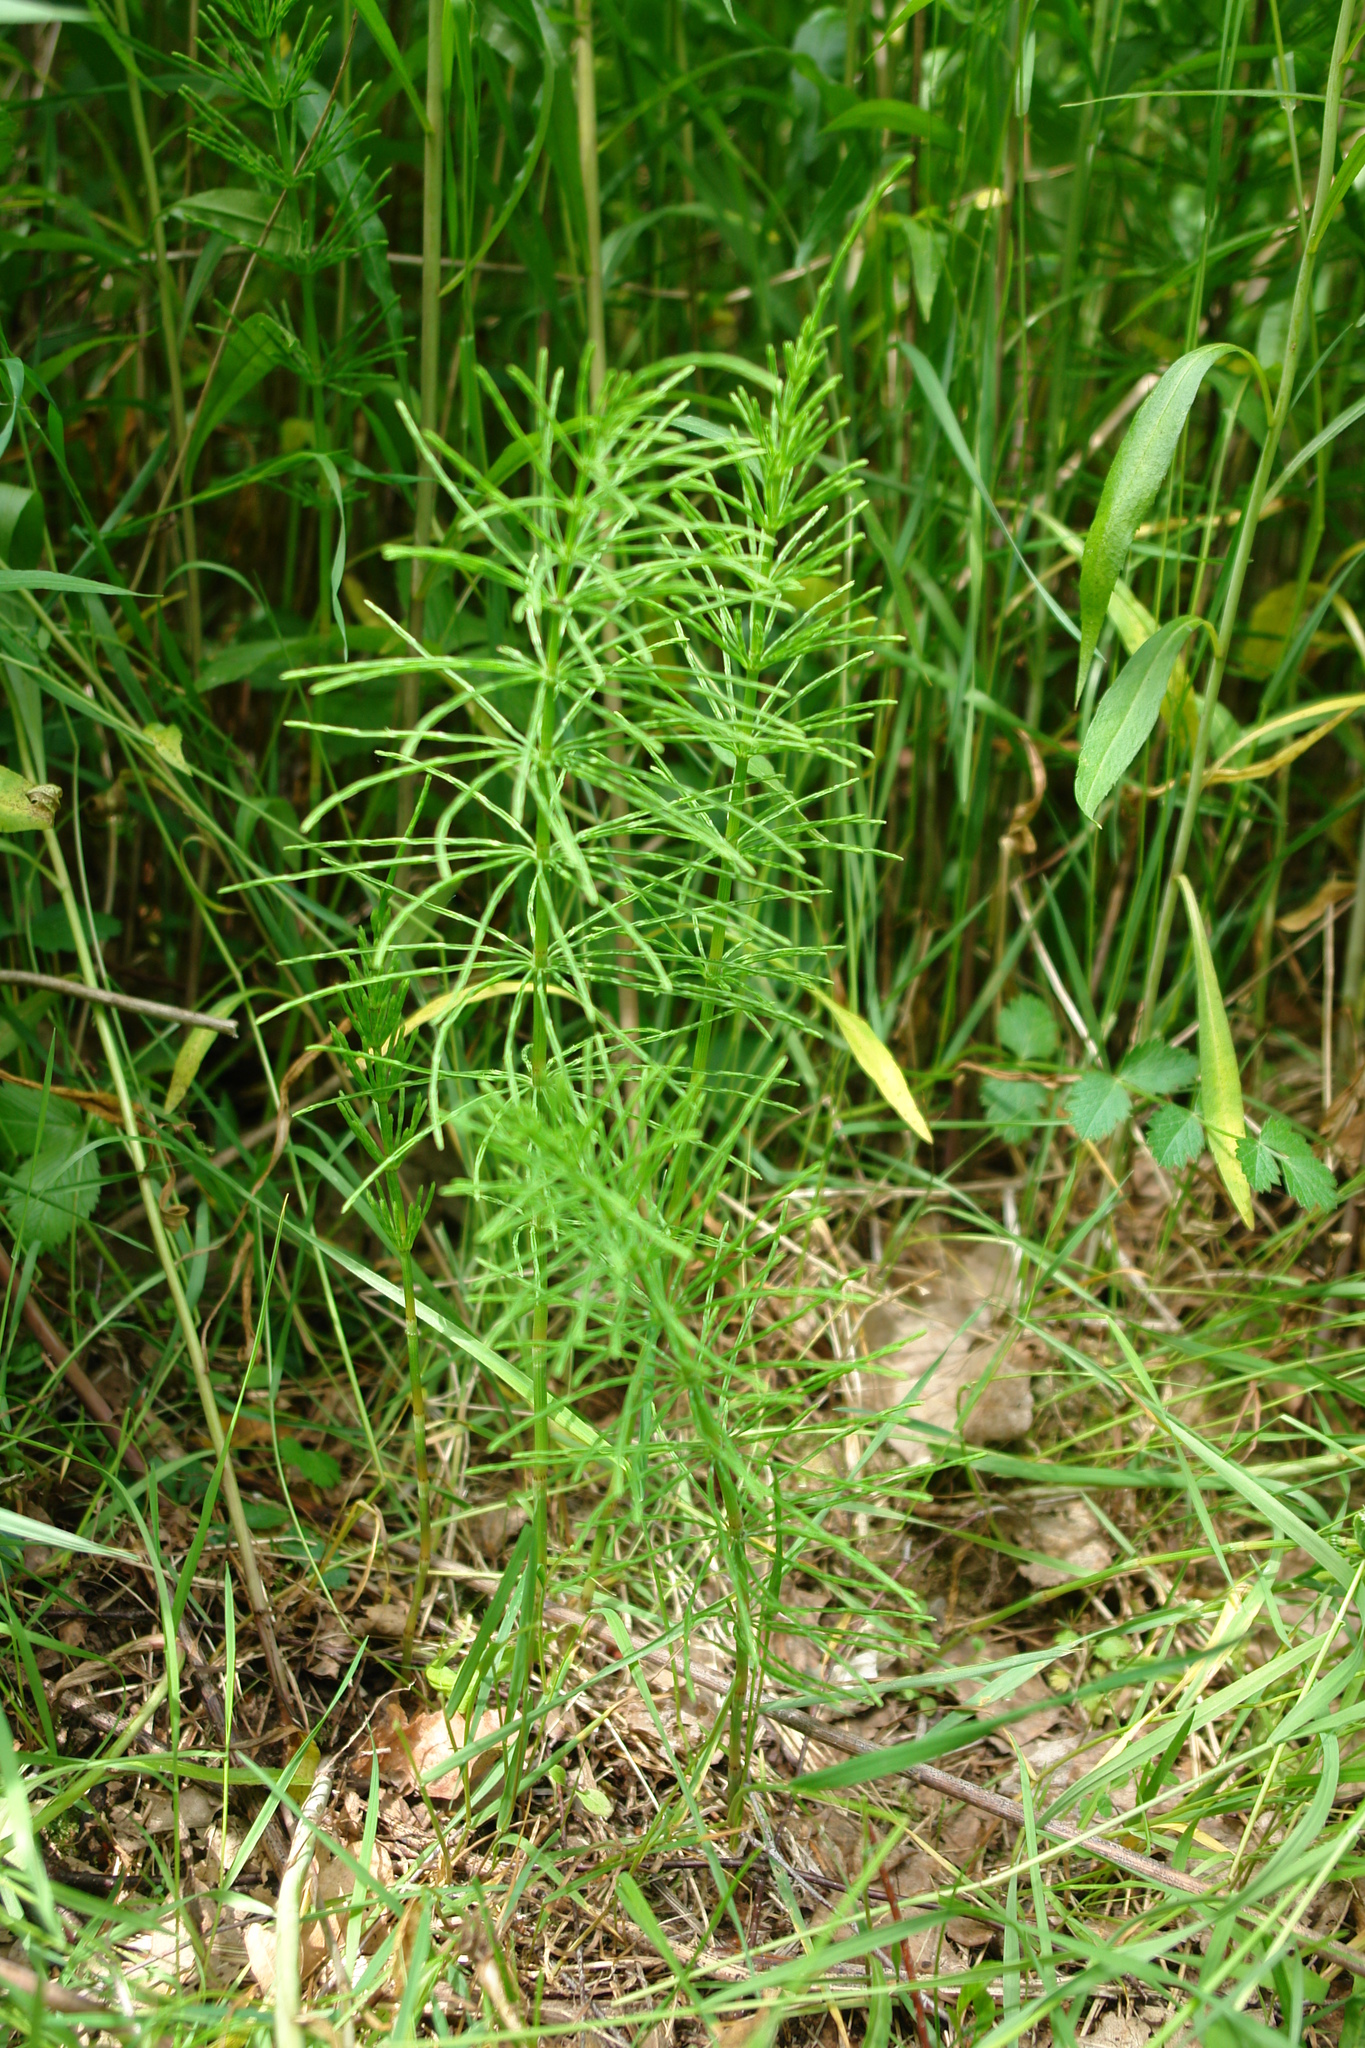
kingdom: Plantae
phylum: Tracheophyta
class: Polypodiopsida
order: Equisetales
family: Equisetaceae
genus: Equisetum
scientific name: Equisetum arvense
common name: Field horsetail
